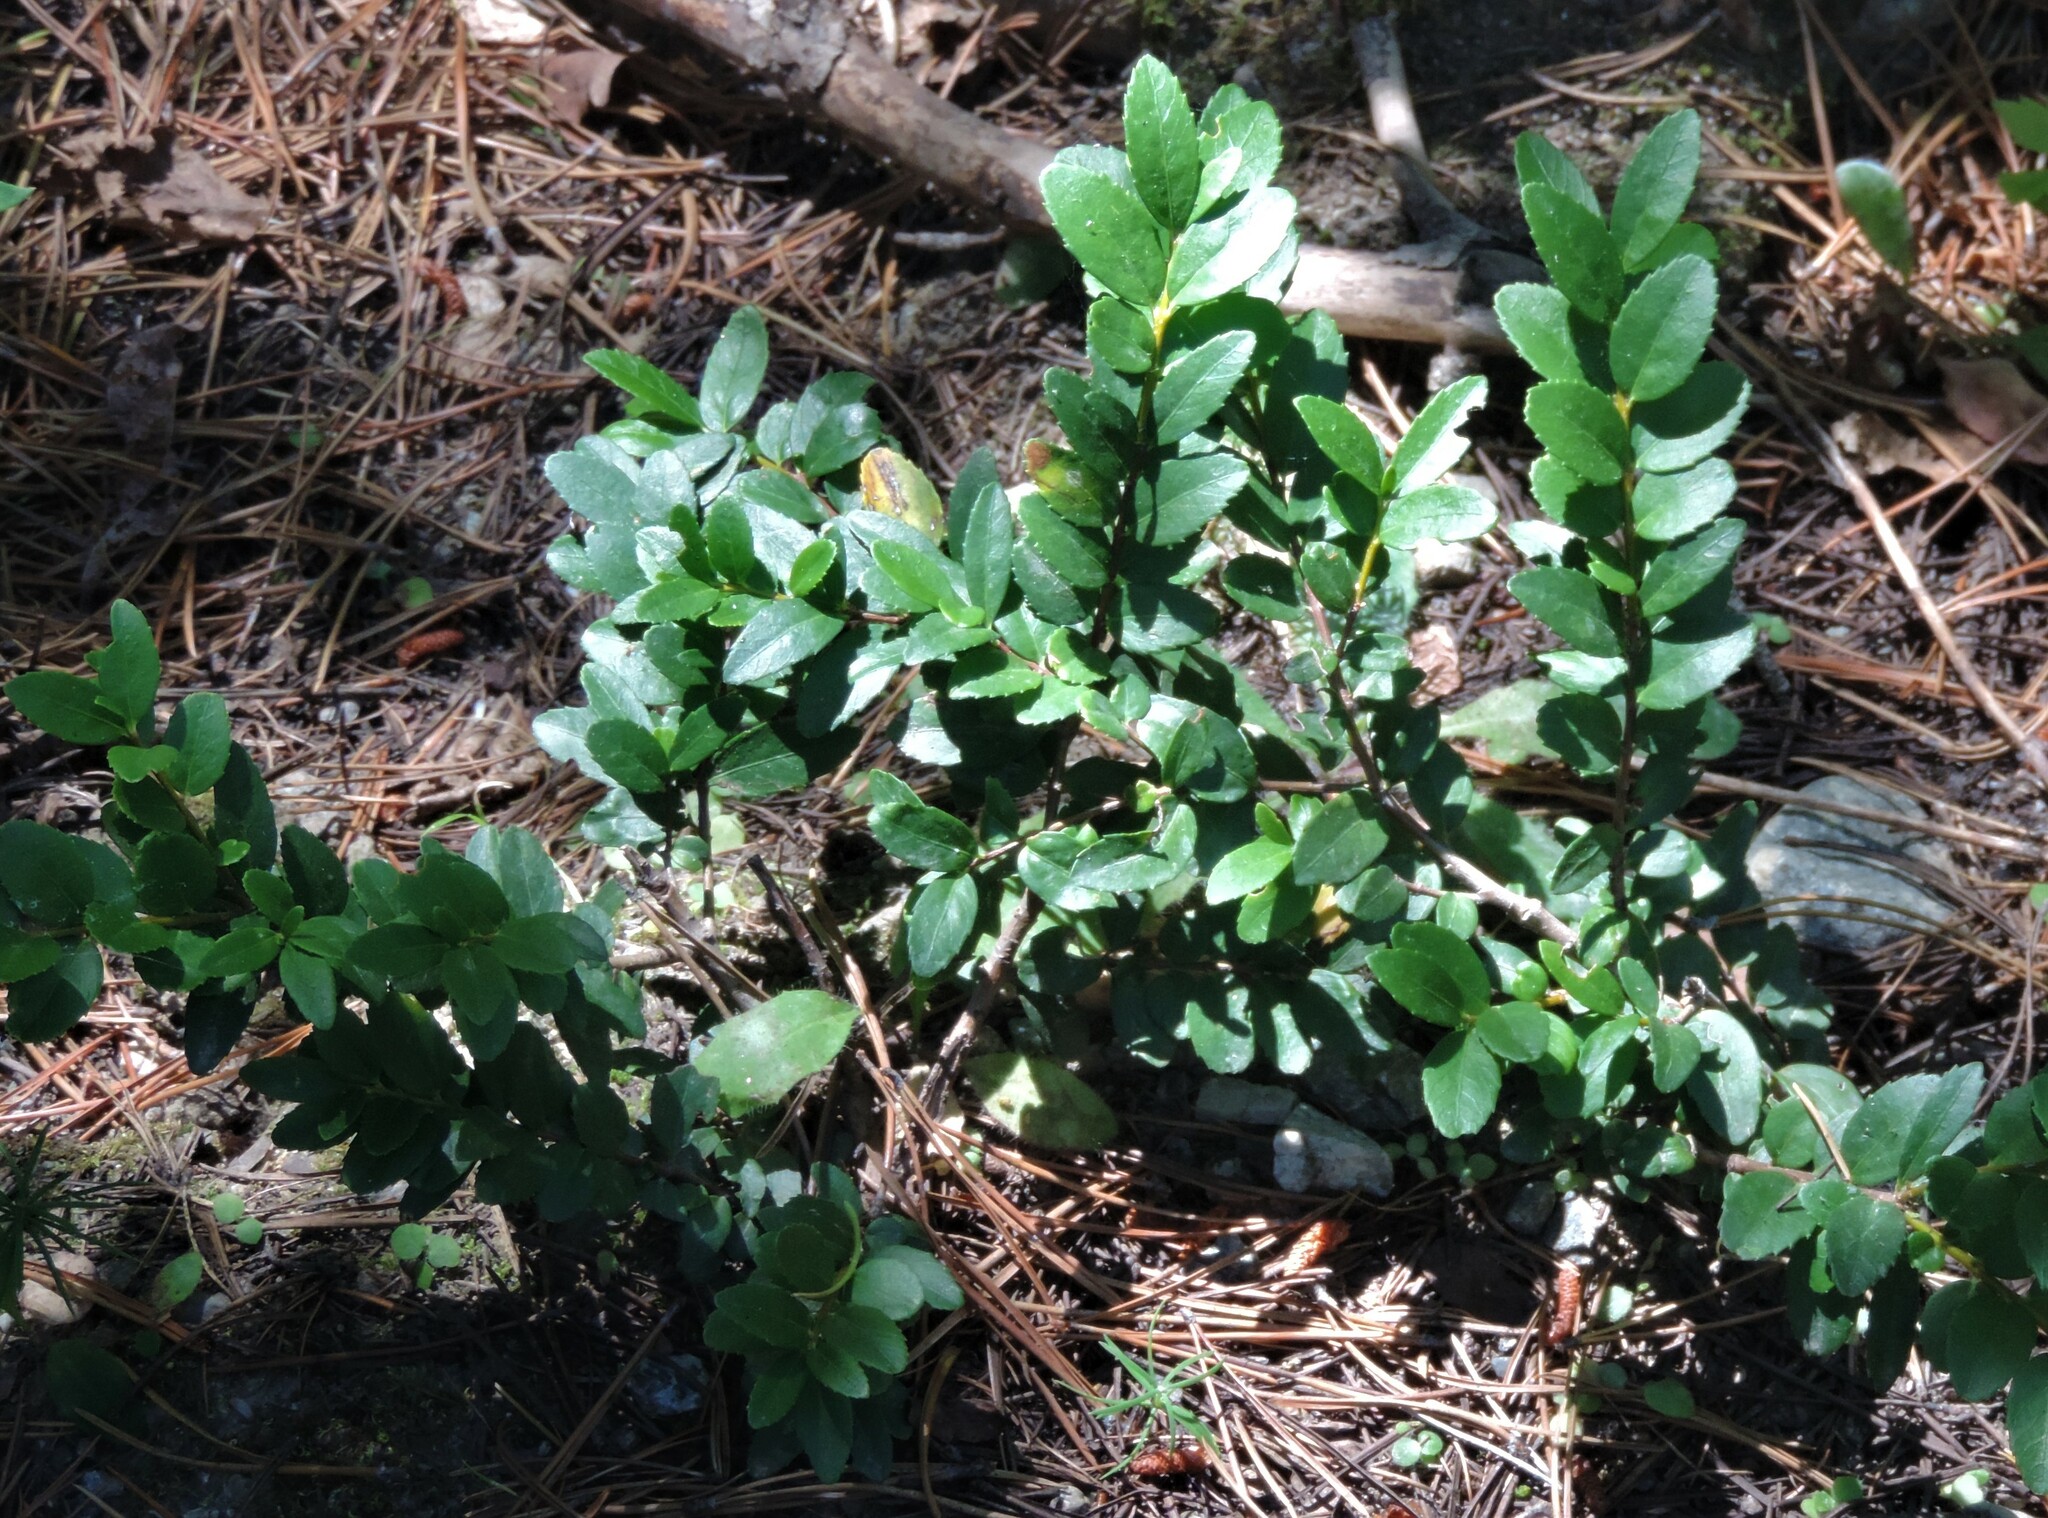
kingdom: Plantae
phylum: Tracheophyta
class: Magnoliopsida
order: Celastrales
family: Celastraceae
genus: Paxistima
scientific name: Paxistima myrsinites
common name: Mountain-lover
